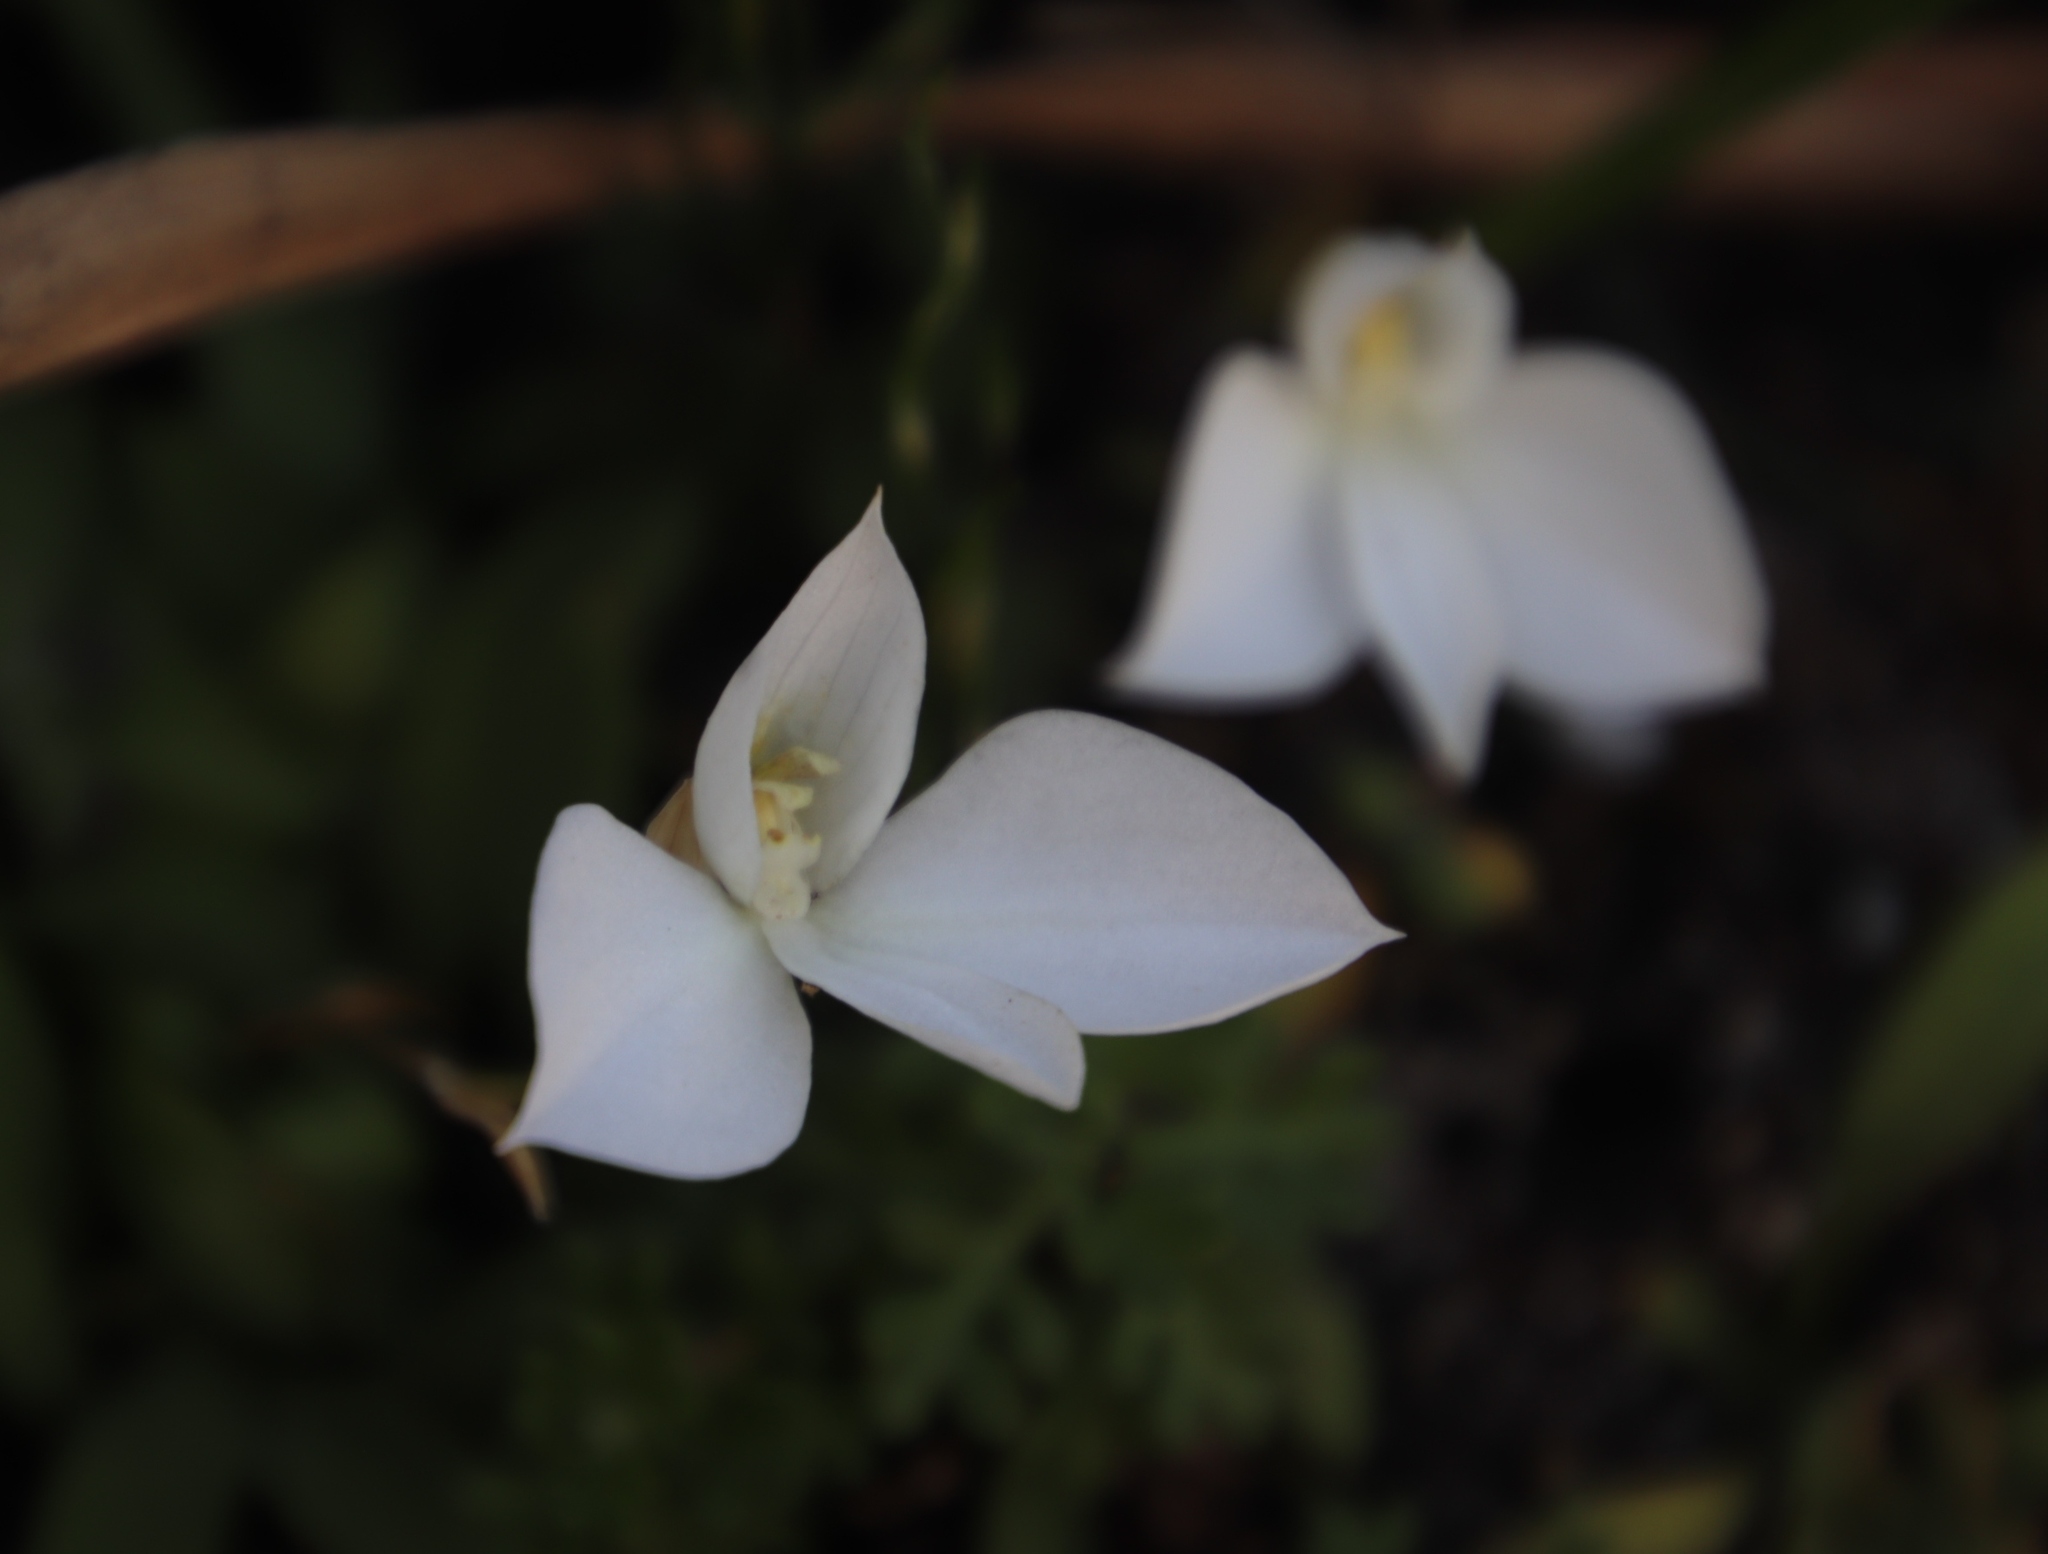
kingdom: Plantae
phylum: Tracheophyta
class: Liliopsida
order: Asparagales
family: Orchidaceae
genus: Disa
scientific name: Disa virginalis
